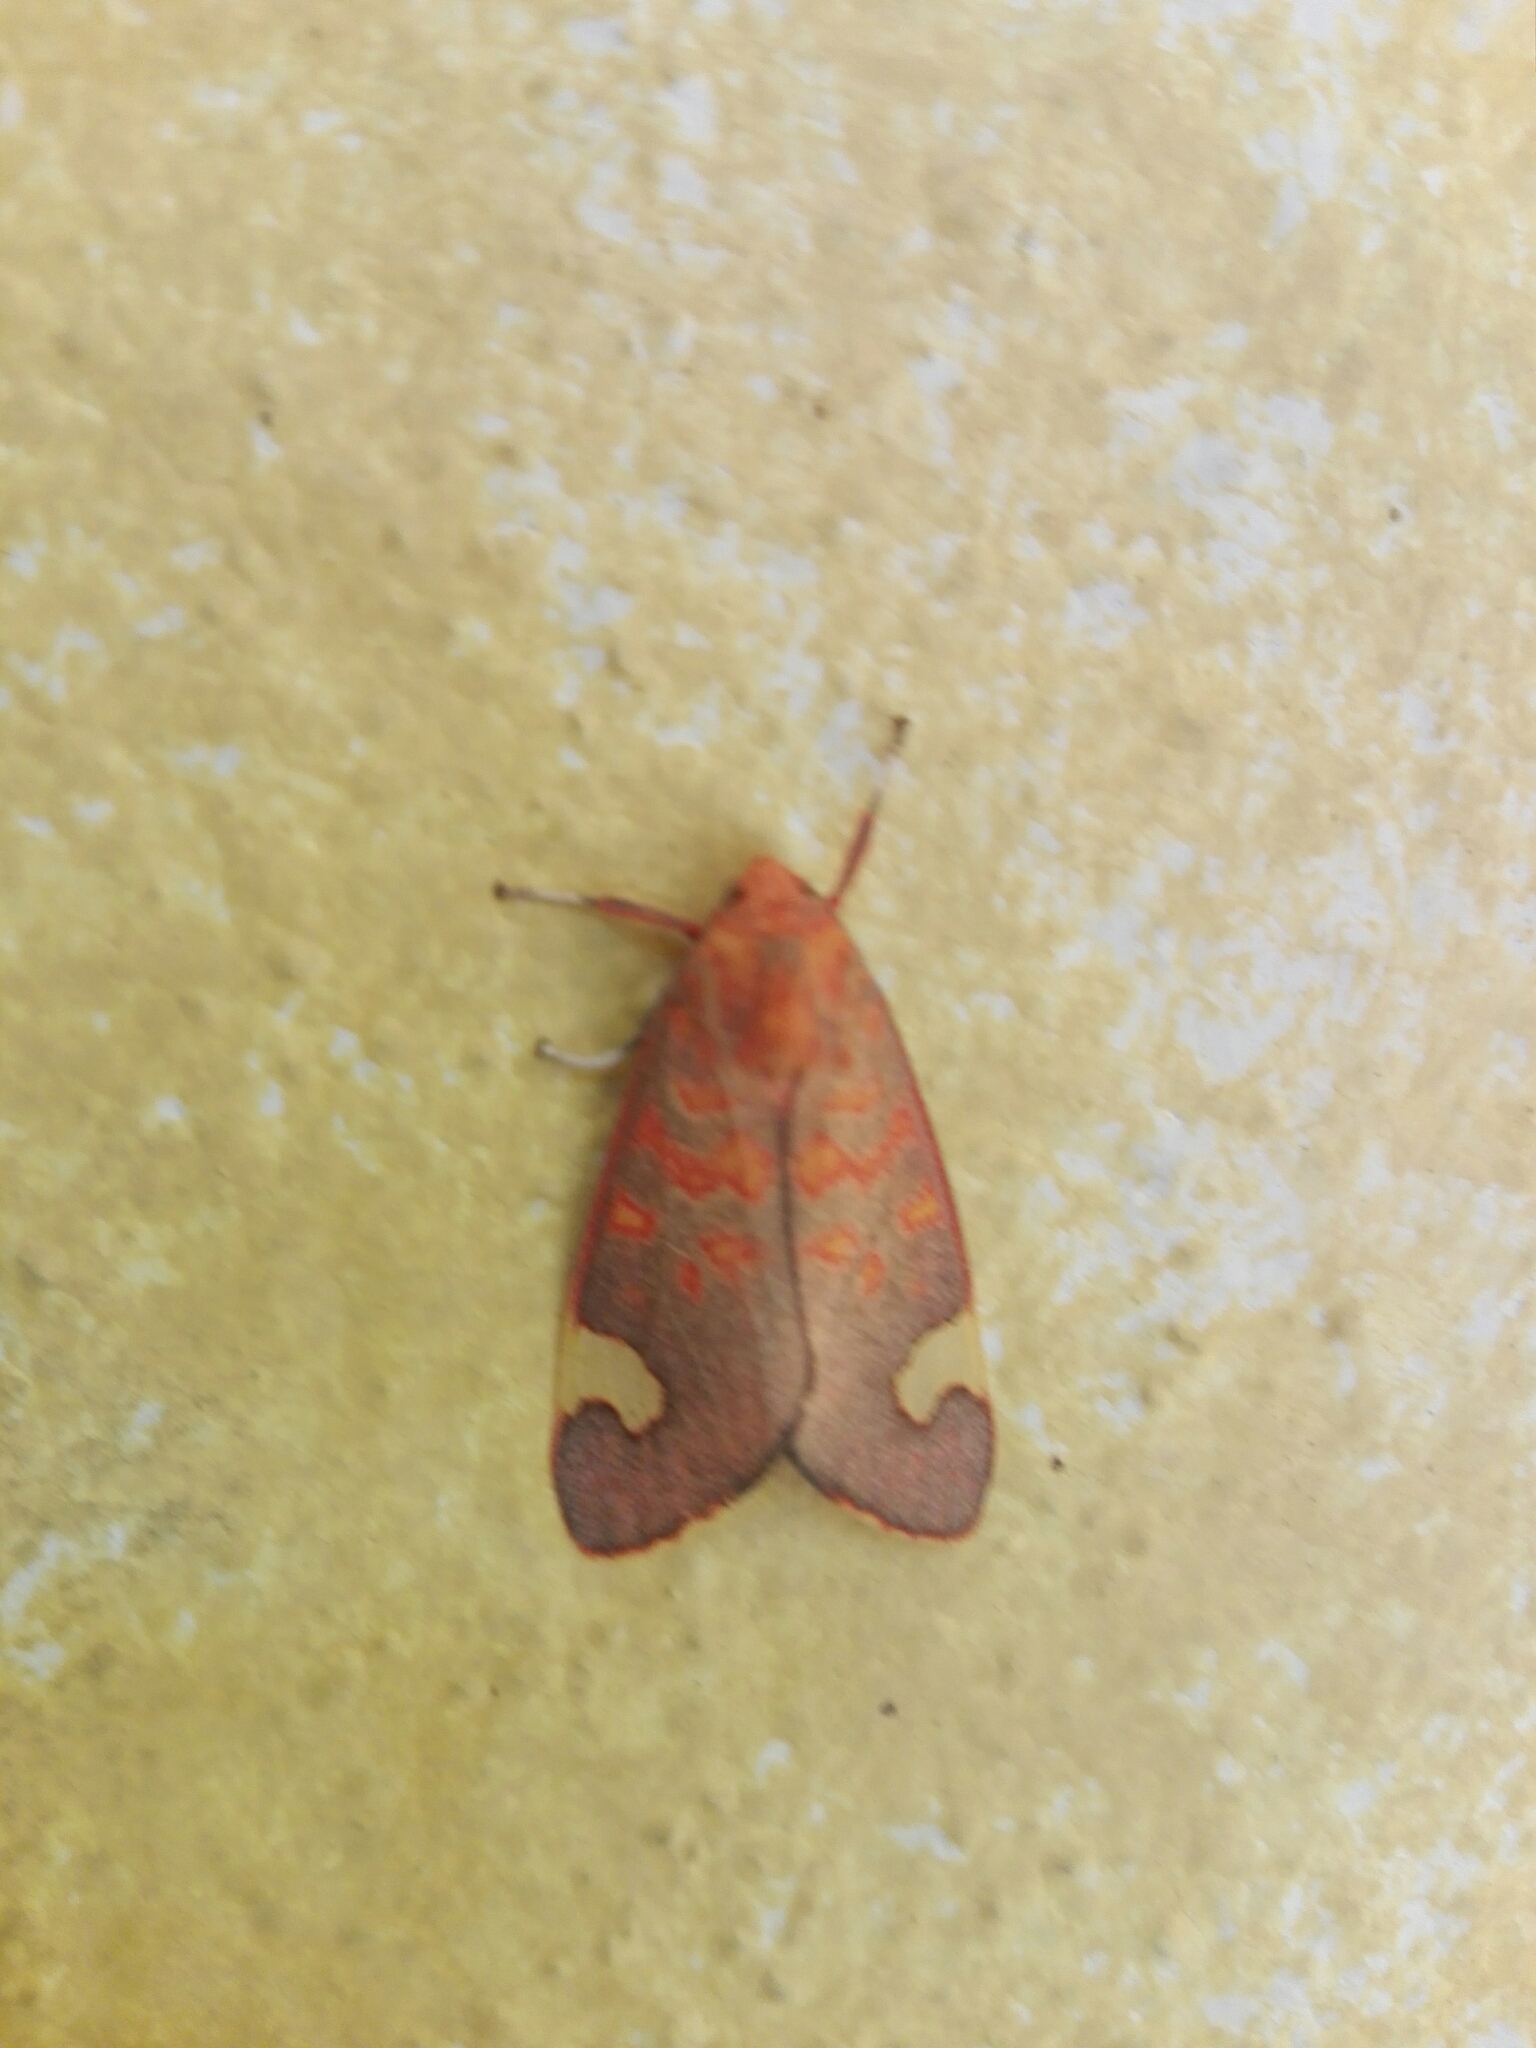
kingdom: Animalia
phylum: Arthropoda
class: Insecta
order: Lepidoptera
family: Erebidae
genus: Melese
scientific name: Melese amastris
